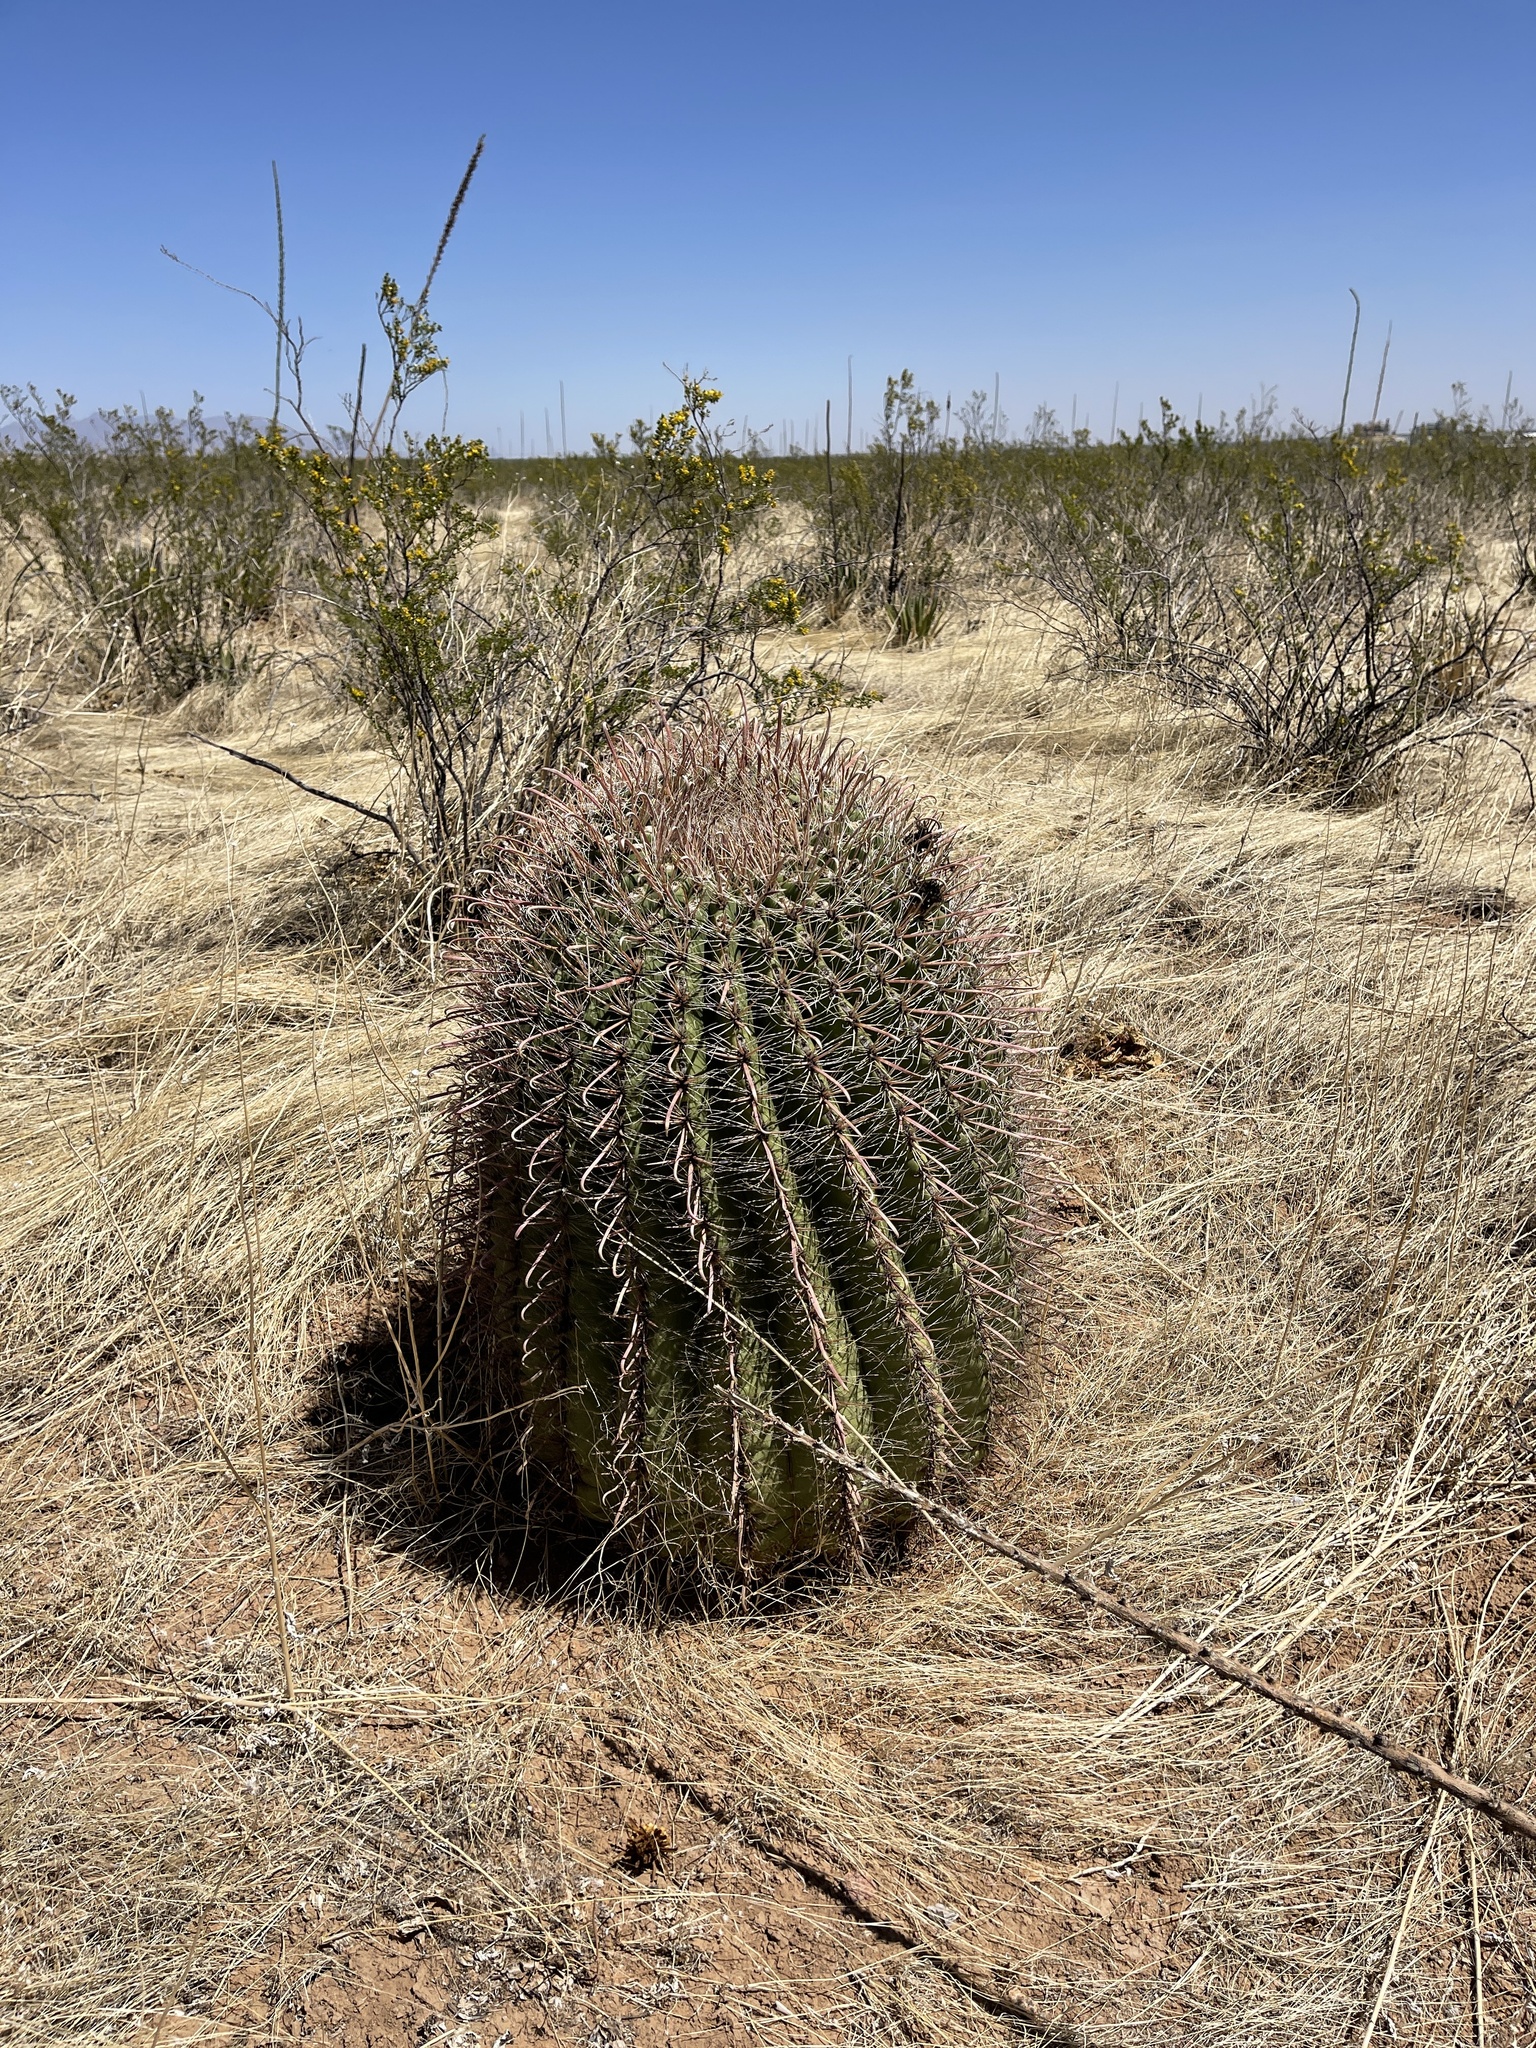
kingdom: Plantae
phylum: Tracheophyta
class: Magnoliopsida
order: Caryophyllales
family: Cactaceae
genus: Ferocactus
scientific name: Ferocactus wislizeni
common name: Candy barrel cactus
